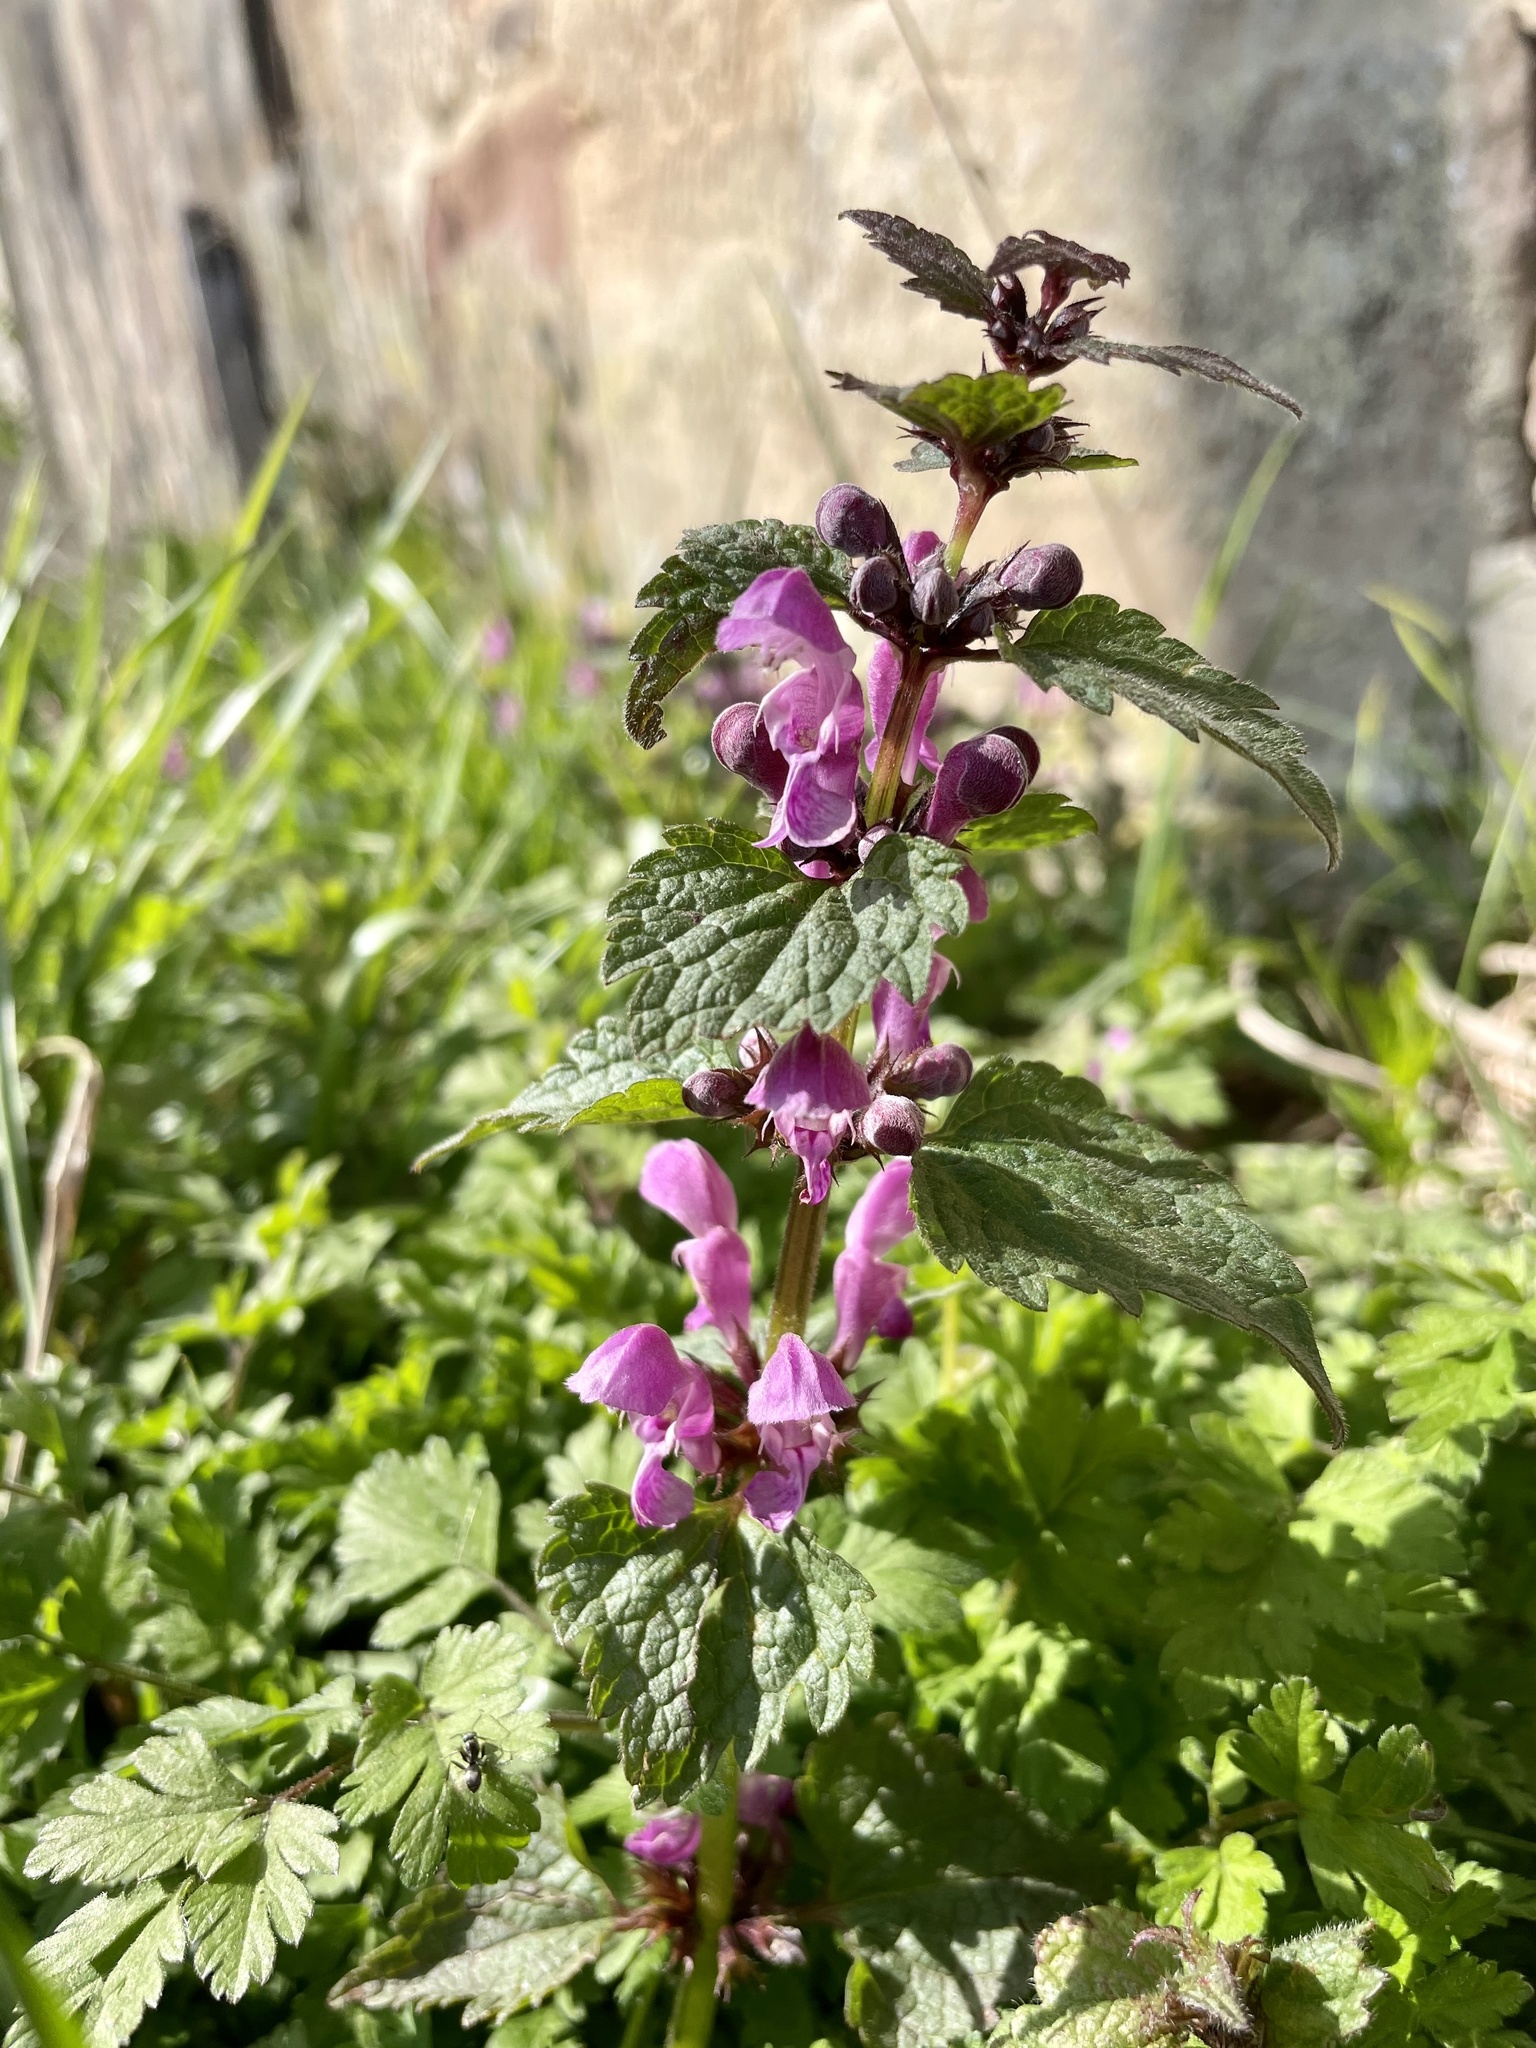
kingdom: Plantae
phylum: Tracheophyta
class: Magnoliopsida
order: Lamiales
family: Lamiaceae
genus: Lamium
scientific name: Lamium maculatum
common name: Spotted dead-nettle
